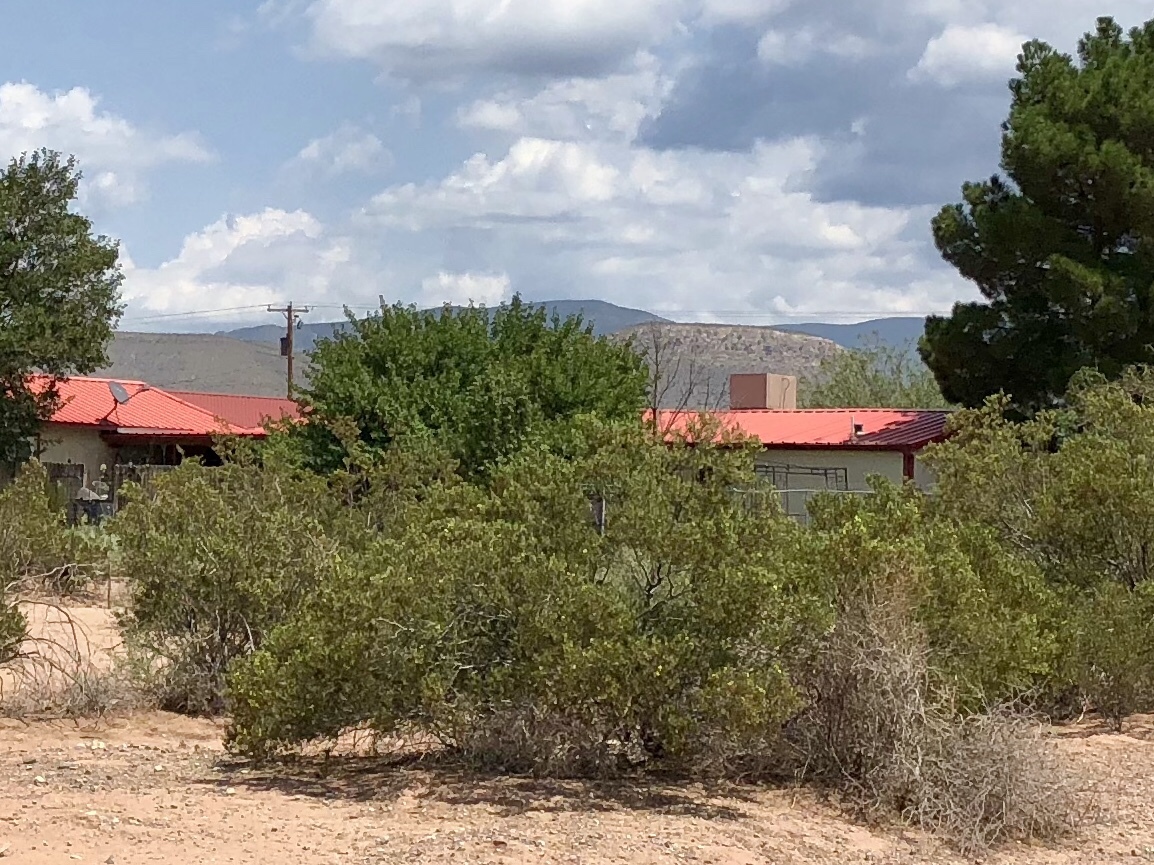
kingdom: Plantae
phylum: Tracheophyta
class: Magnoliopsida
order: Zygophyllales
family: Zygophyllaceae
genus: Larrea
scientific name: Larrea tridentata
